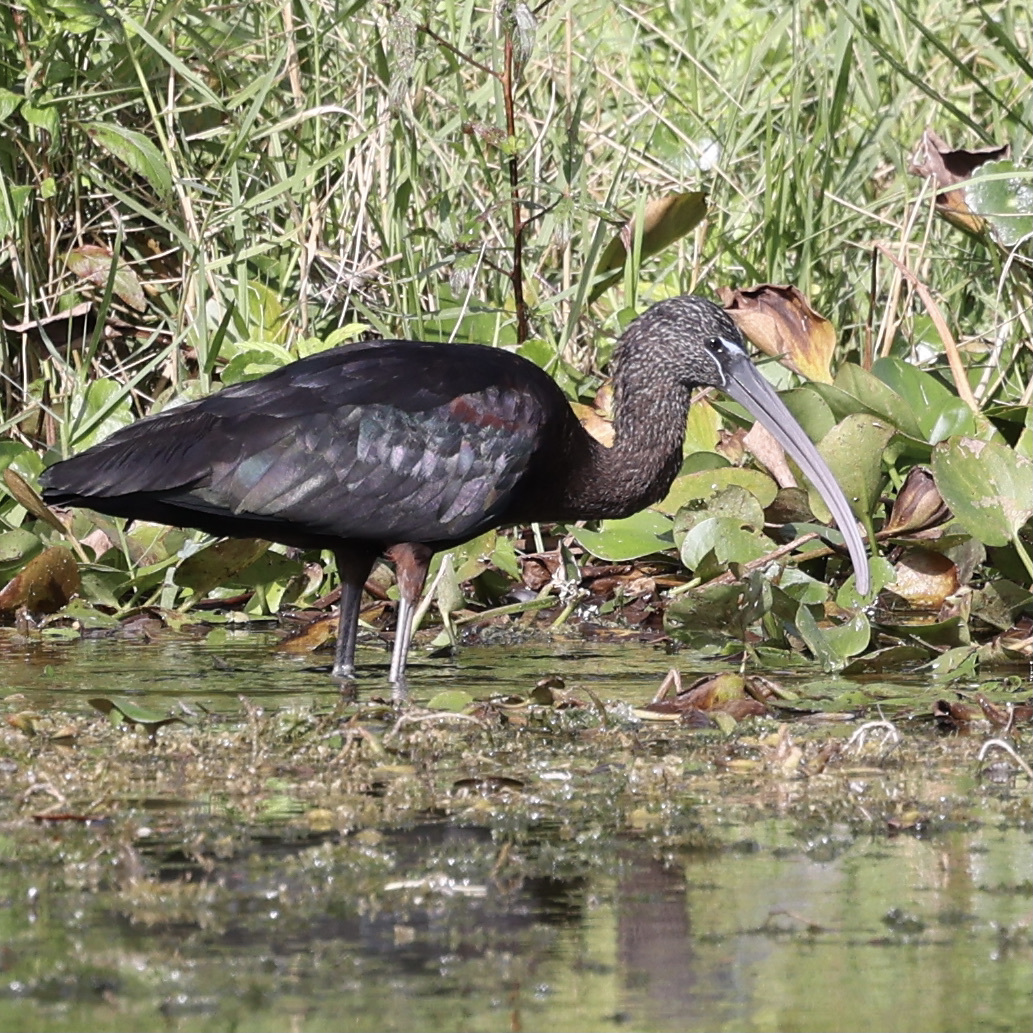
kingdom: Animalia
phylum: Chordata
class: Aves
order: Pelecaniformes
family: Threskiornithidae
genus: Plegadis
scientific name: Plegadis falcinellus
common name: Glossy ibis
